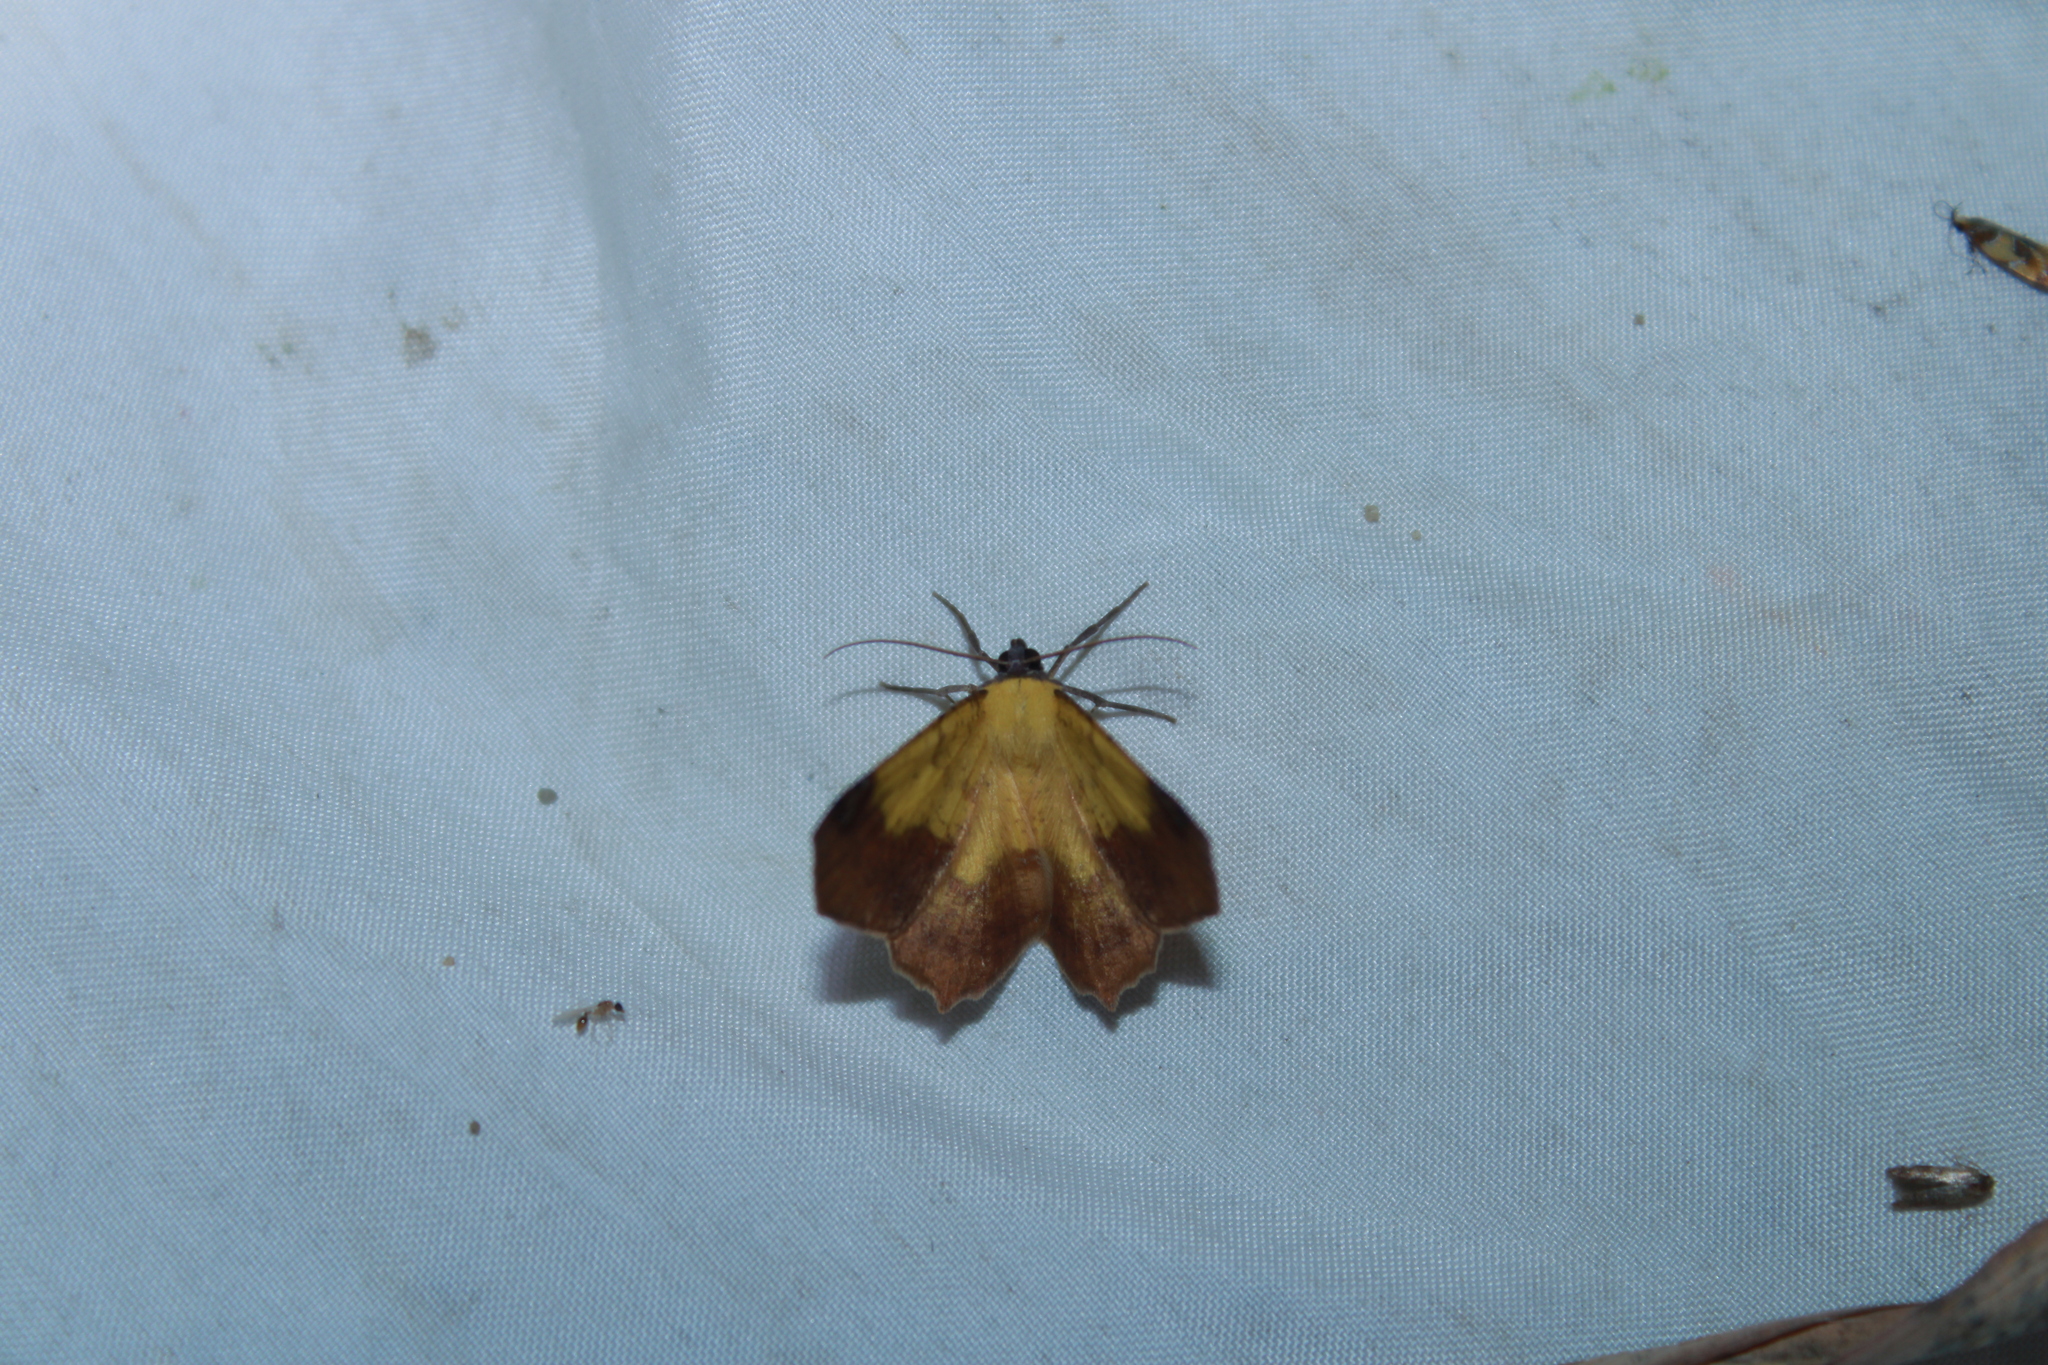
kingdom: Animalia
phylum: Arthropoda
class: Insecta
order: Lepidoptera
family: Geometridae
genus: Antepione
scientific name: Antepione thisoaria
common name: Variable antipione
